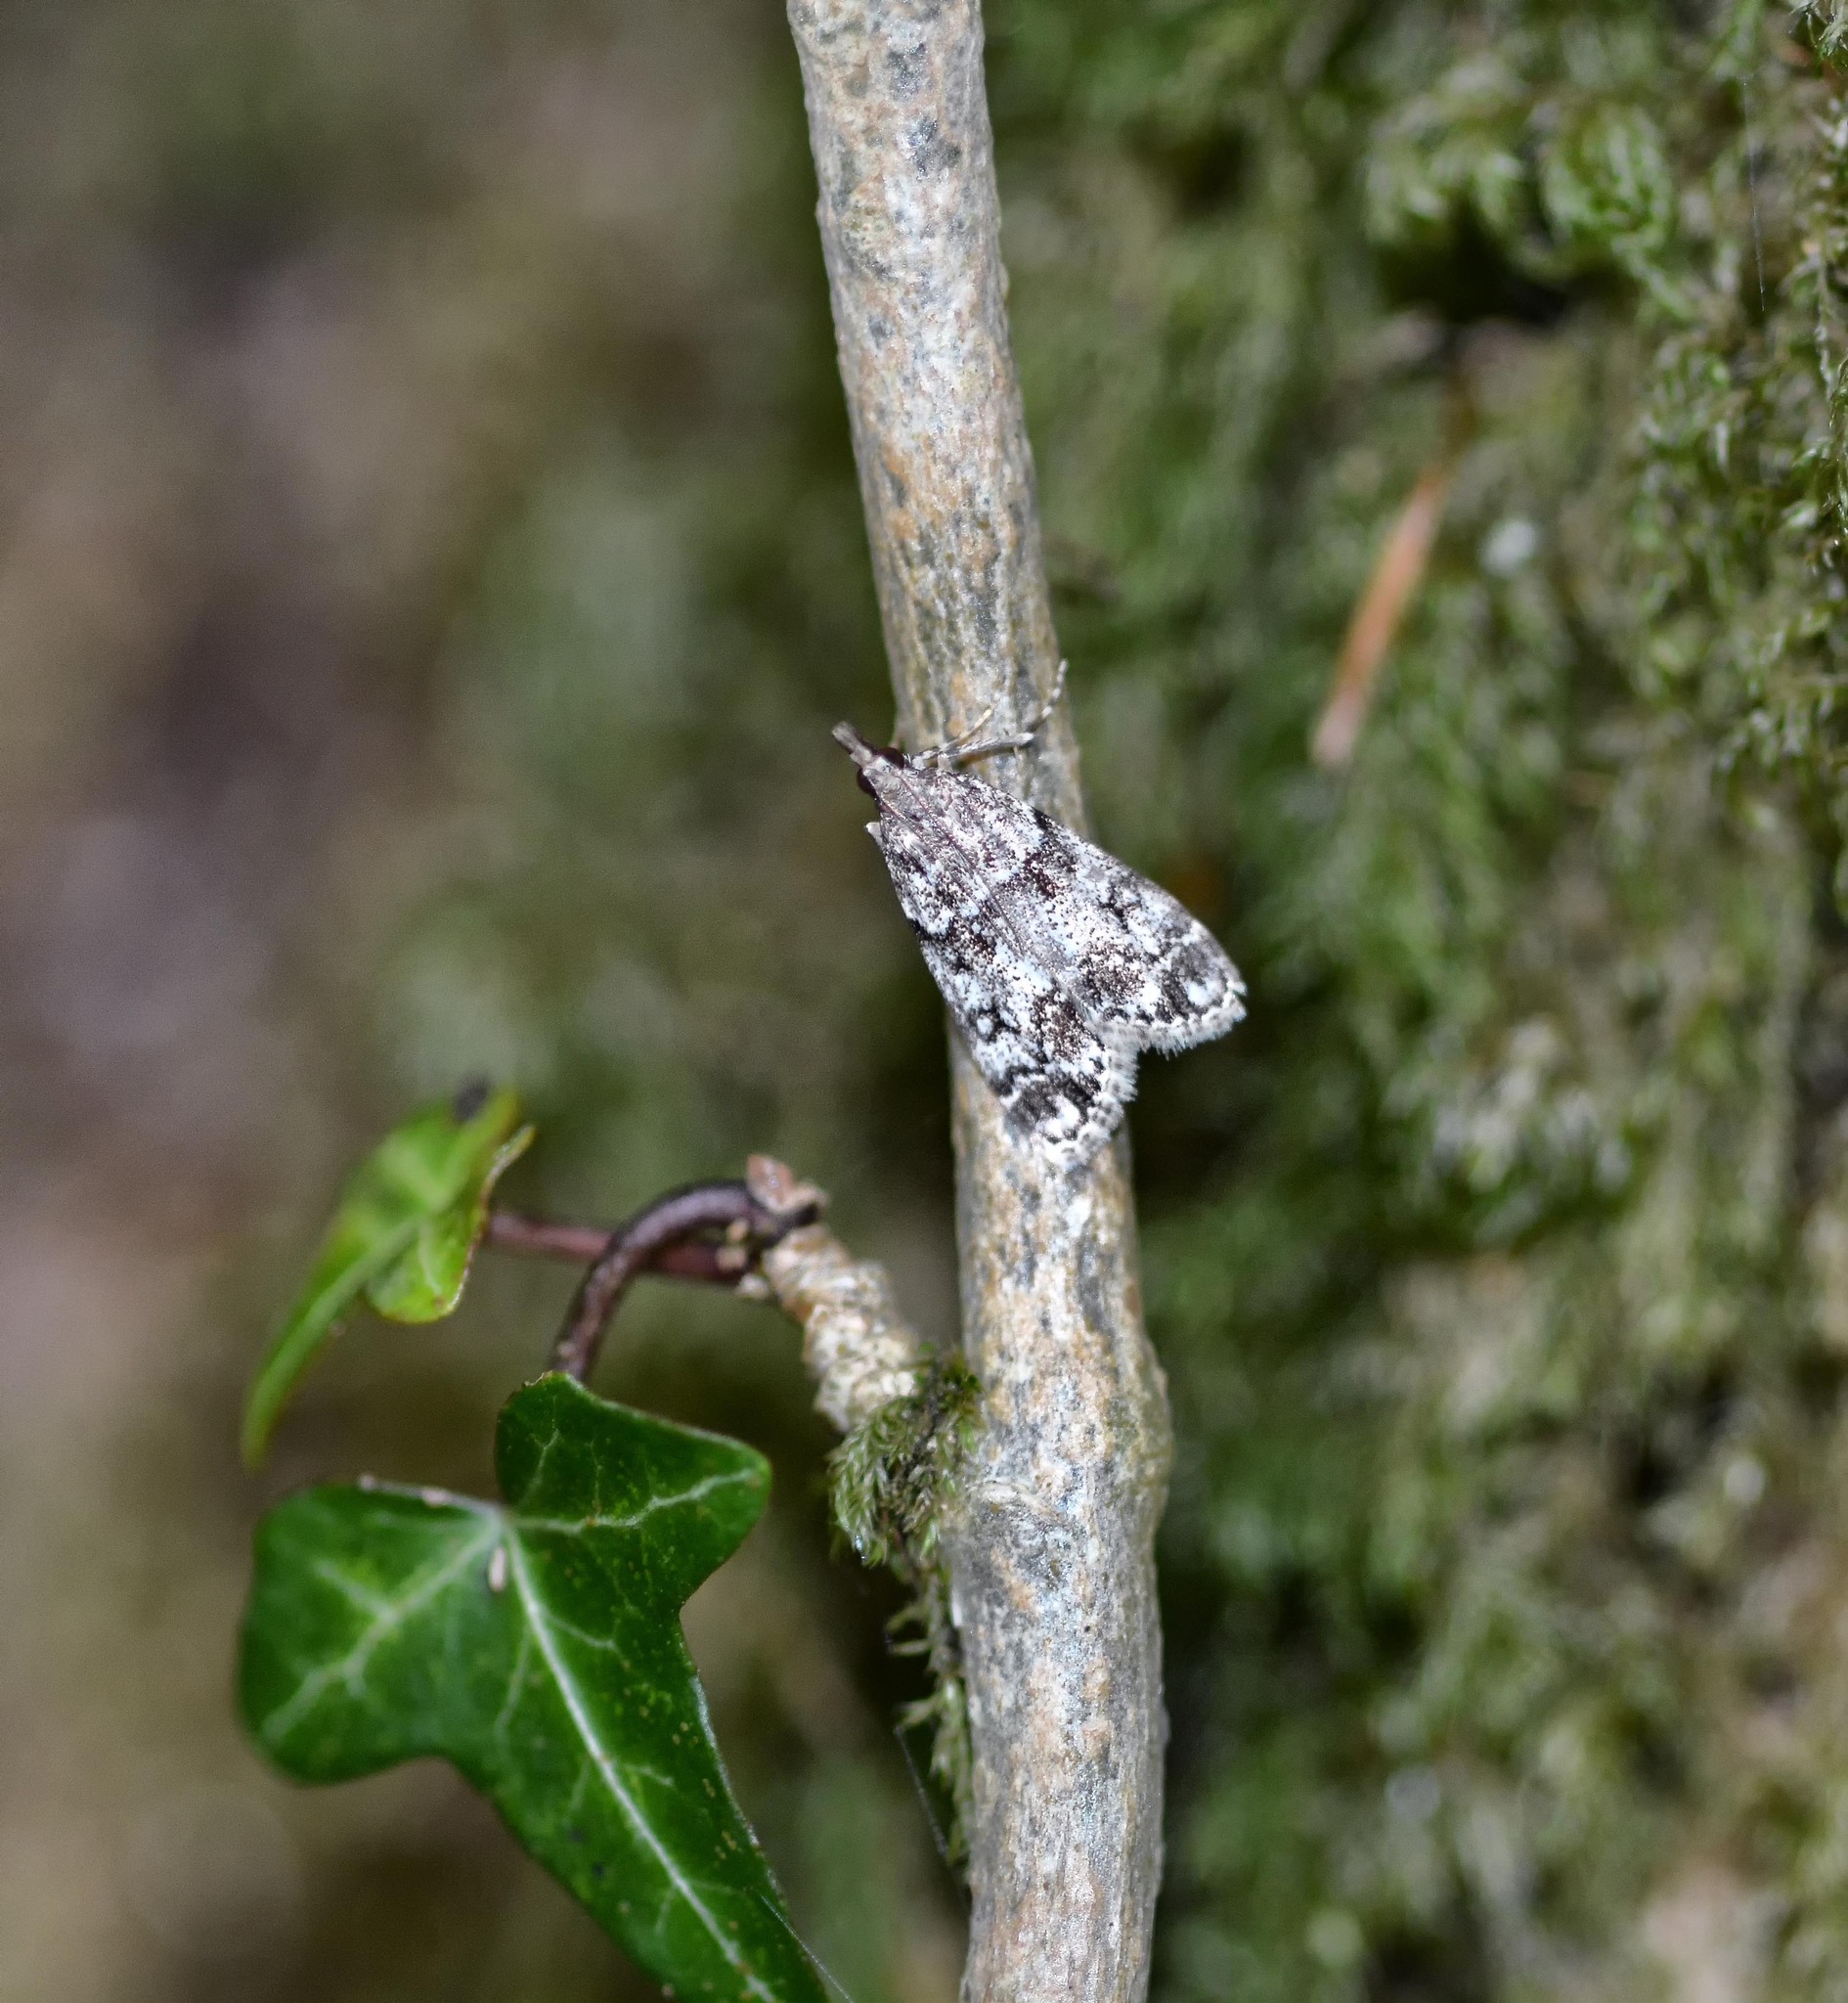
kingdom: Animalia
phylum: Arthropoda
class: Insecta
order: Lepidoptera
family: Crambidae
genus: Eudonia
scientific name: Eudonia lacustrata
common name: Little grey
